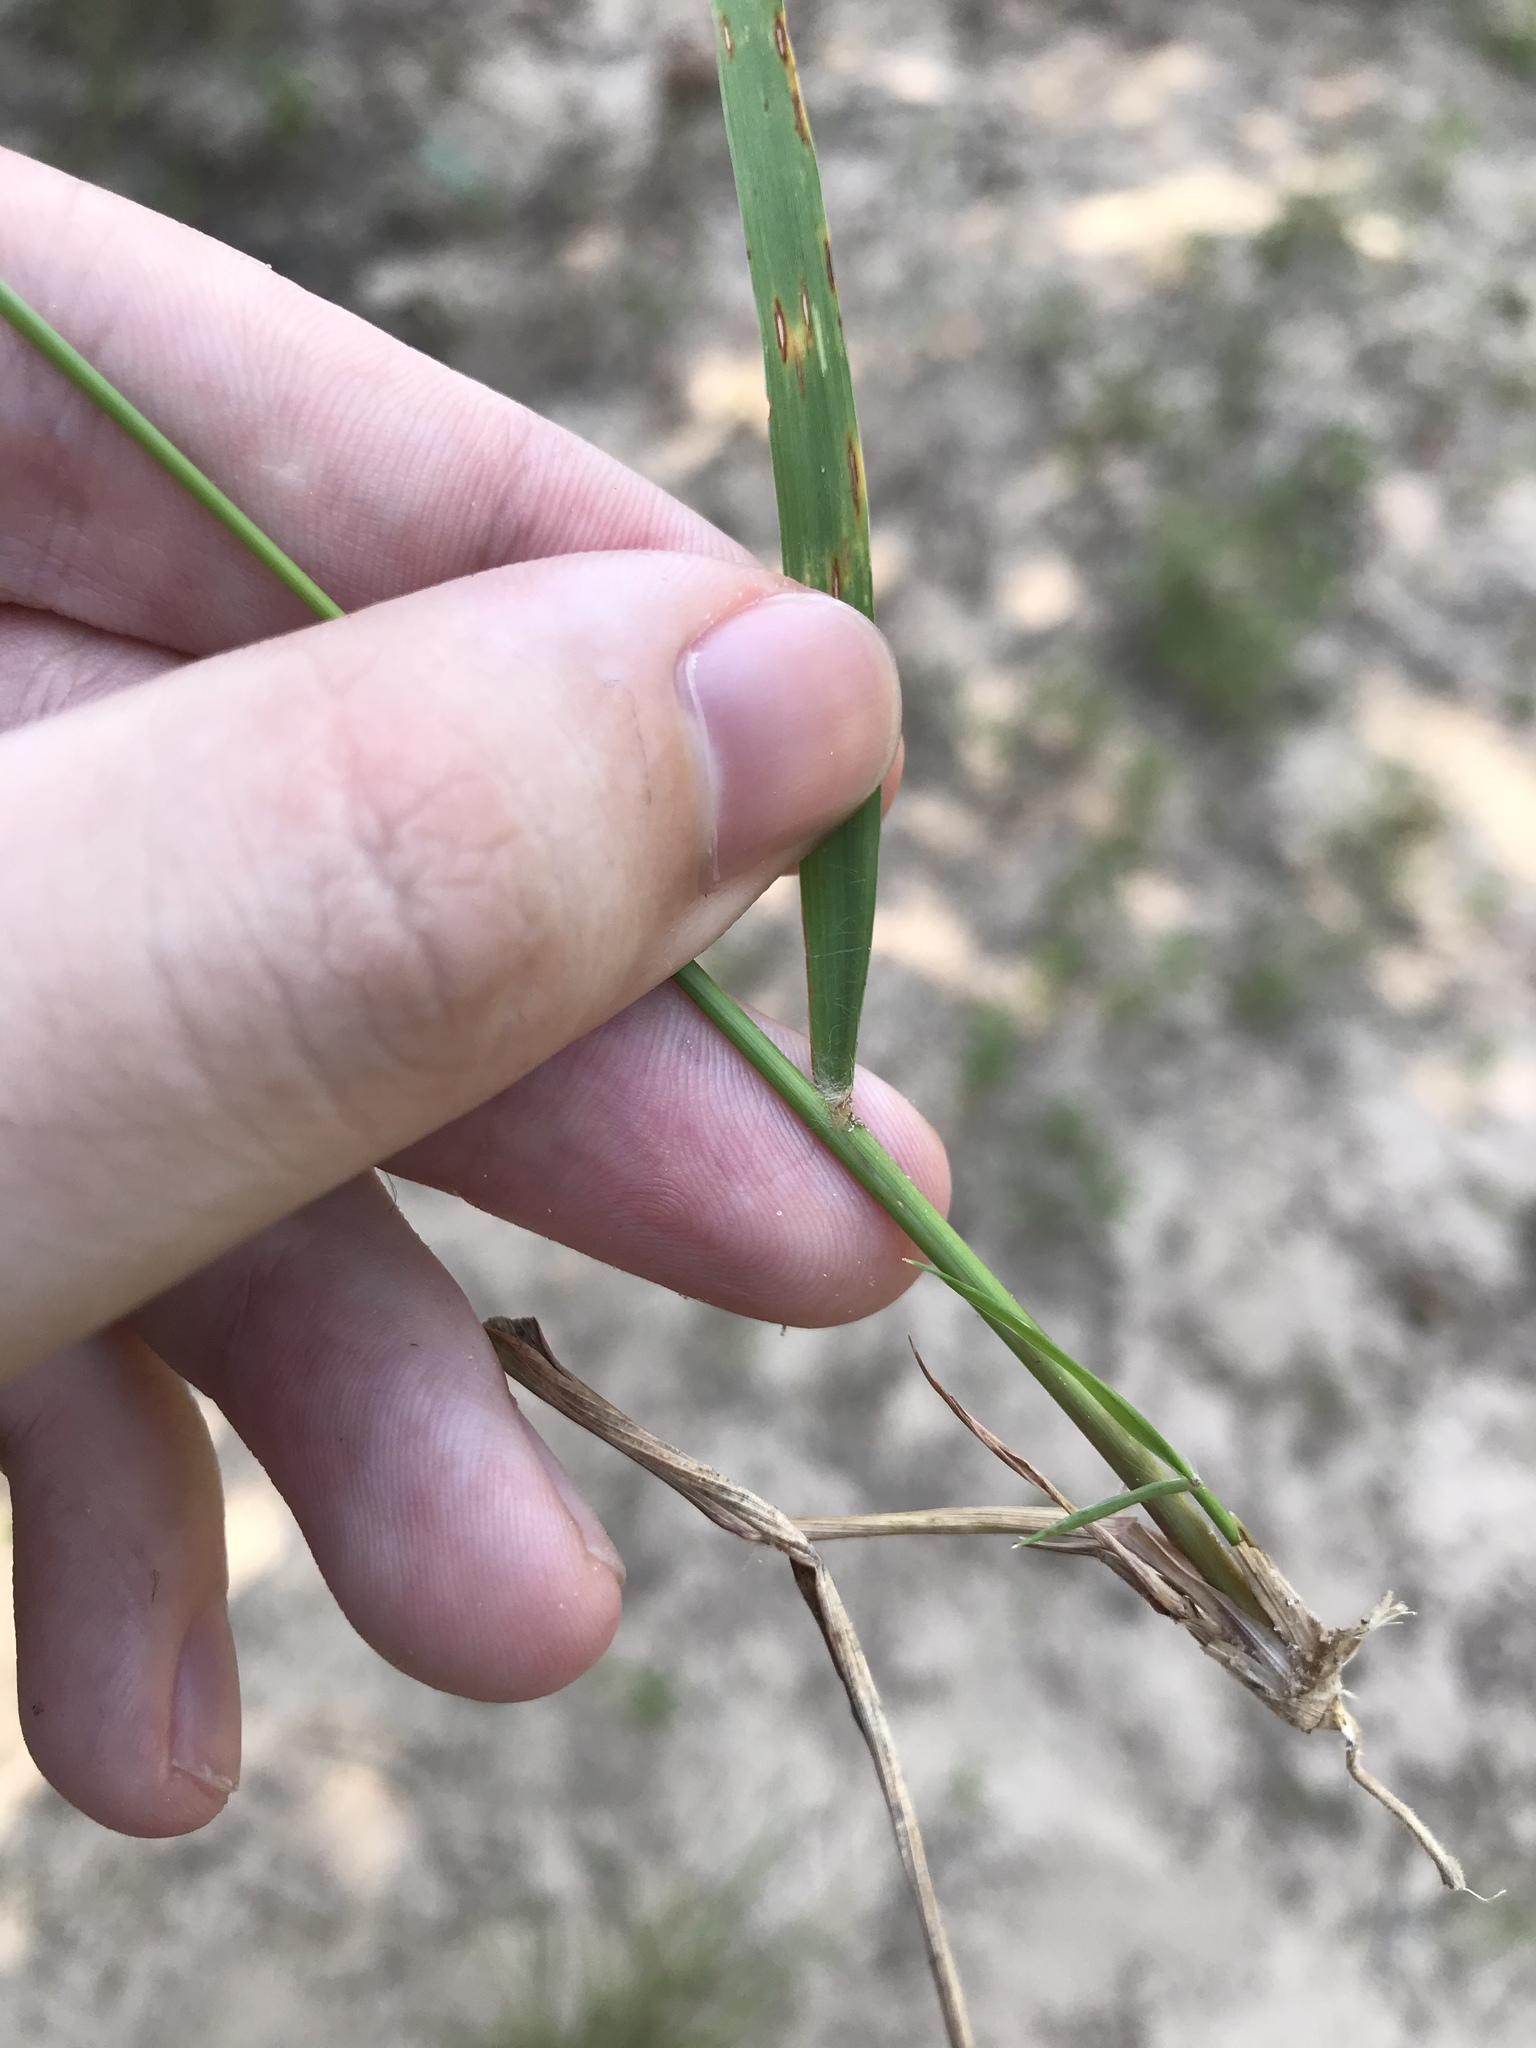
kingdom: Plantae
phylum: Tracheophyta
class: Liliopsida
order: Poales
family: Poaceae
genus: Eragrostis
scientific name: Eragrostis secundiflora
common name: Red love grass
